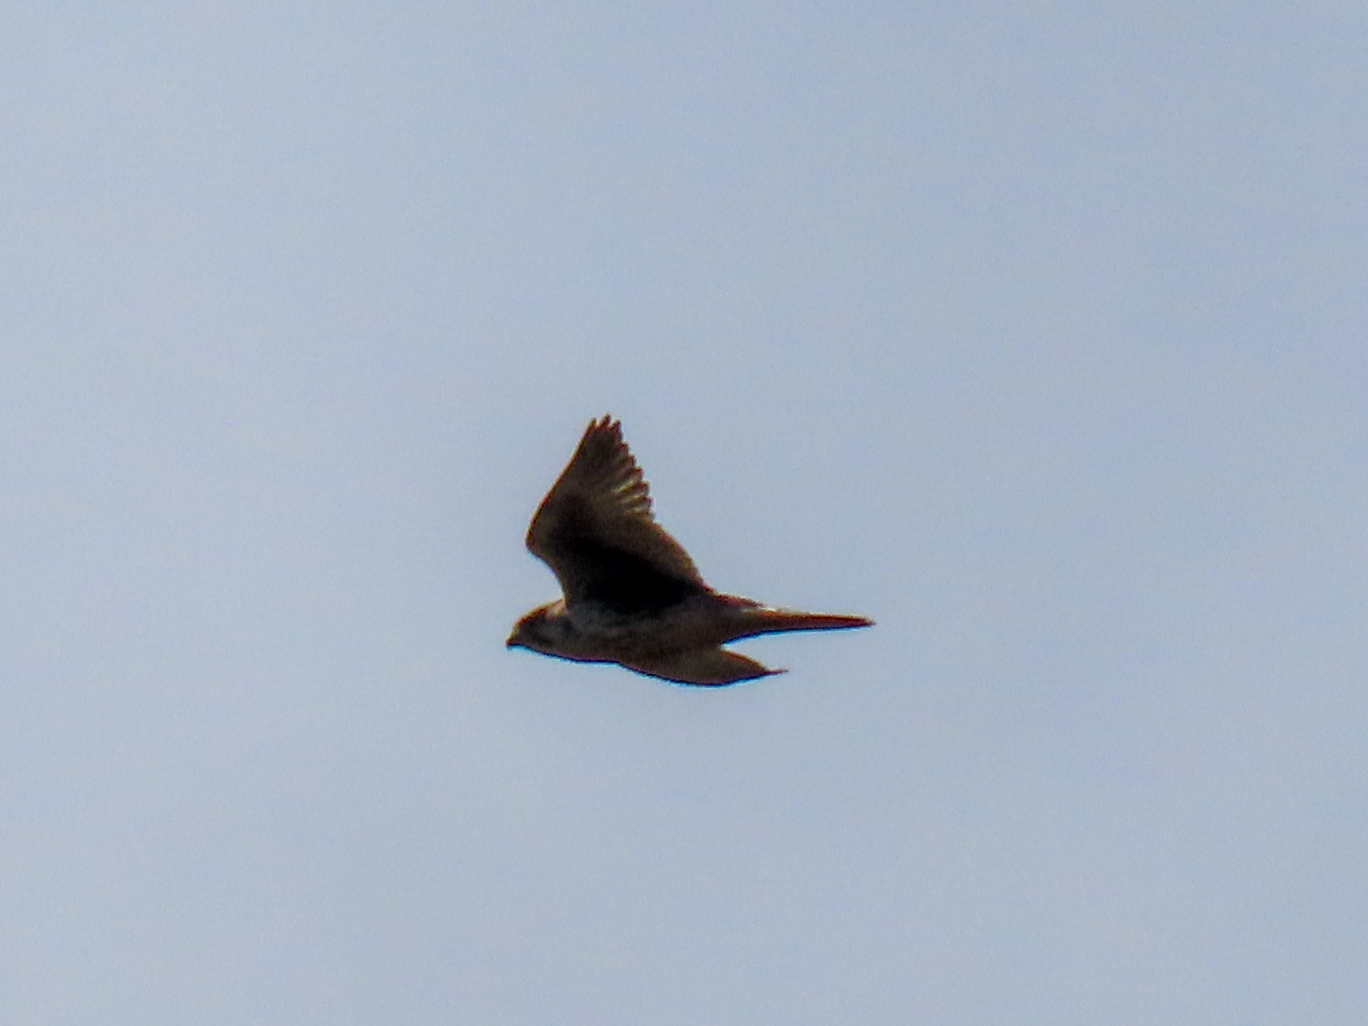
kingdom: Animalia
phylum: Chordata
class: Aves
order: Falconiformes
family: Falconidae
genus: Falco
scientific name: Falco mexicanus
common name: Prairie falcon
